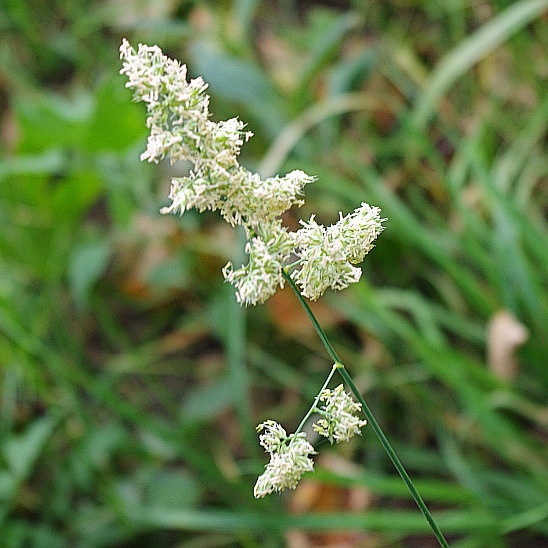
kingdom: Plantae
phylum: Tracheophyta
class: Liliopsida
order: Poales
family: Poaceae
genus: Dactylis
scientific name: Dactylis glomerata
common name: Orchardgrass
